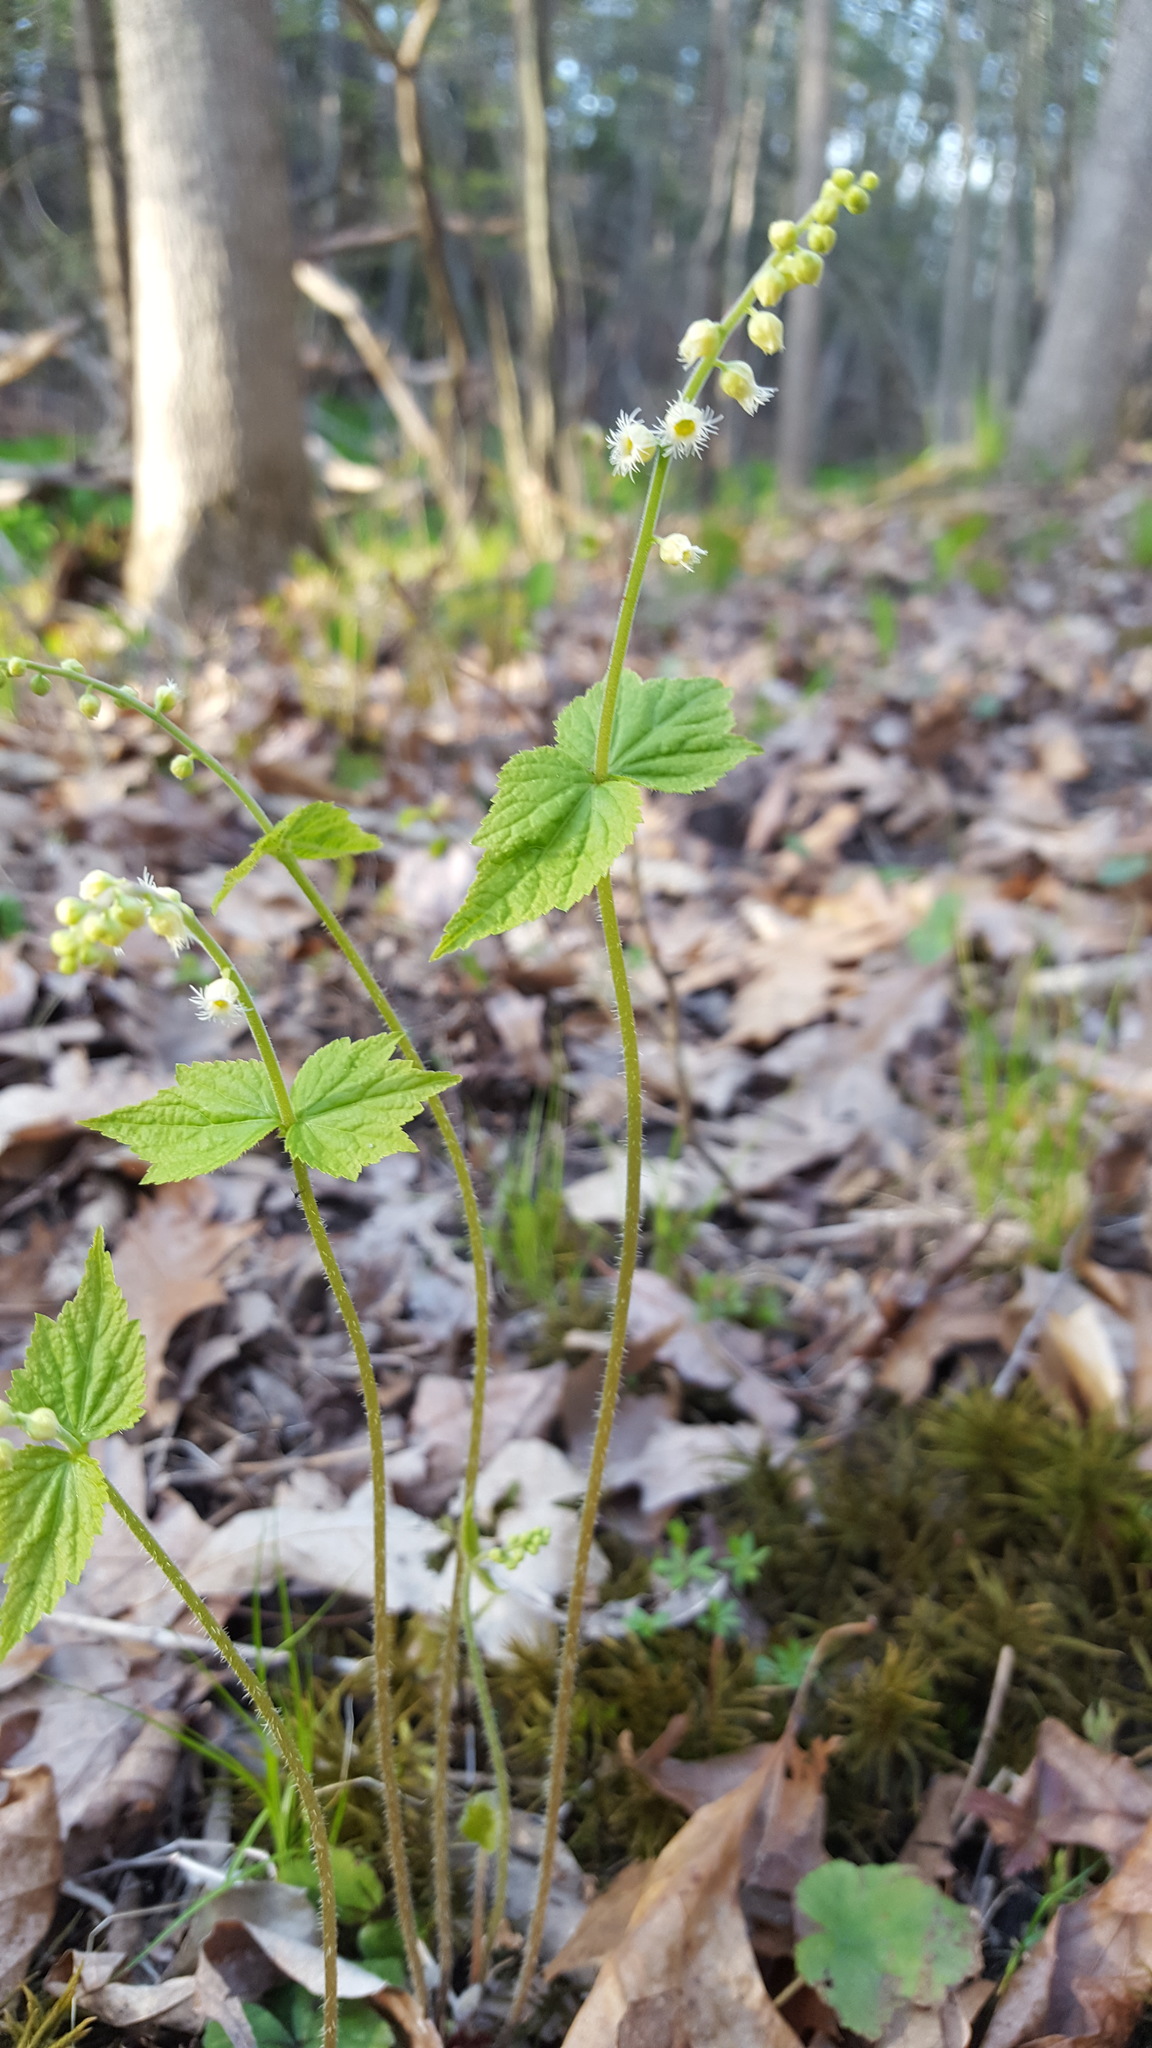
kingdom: Plantae
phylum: Tracheophyta
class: Magnoliopsida
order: Saxifragales
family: Saxifragaceae
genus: Mitella
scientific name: Mitella diphylla
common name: Coolwort
